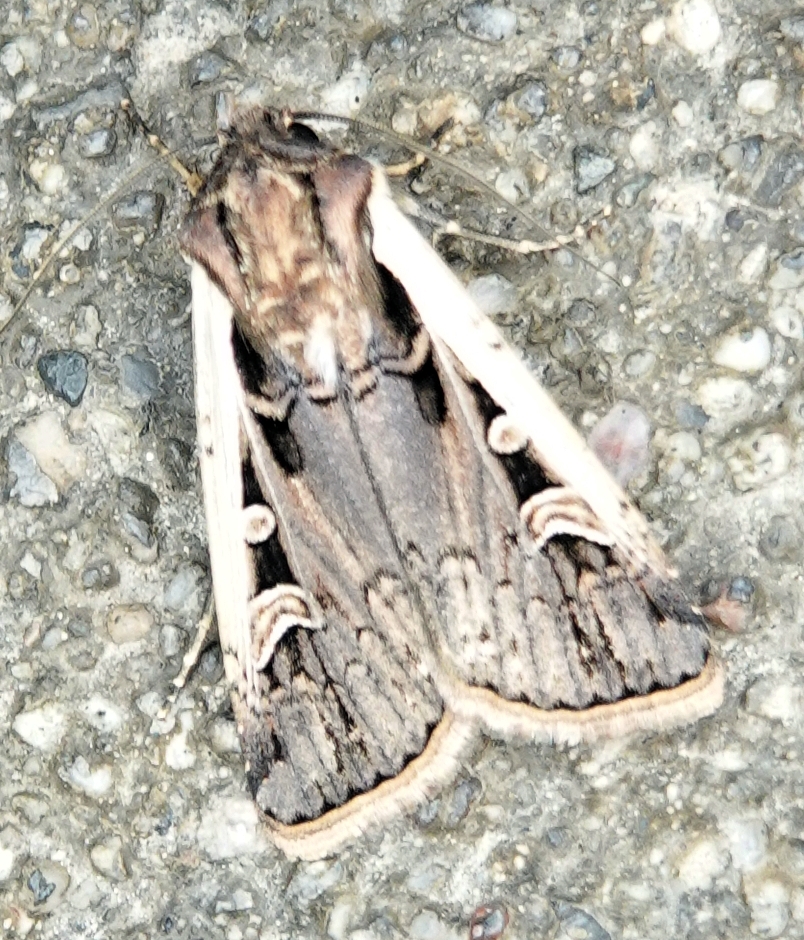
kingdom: Animalia
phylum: Arthropoda
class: Insecta
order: Lepidoptera
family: Noctuidae
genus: Striacosta
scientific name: Striacosta albicosta
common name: Western bean cutworm moth
